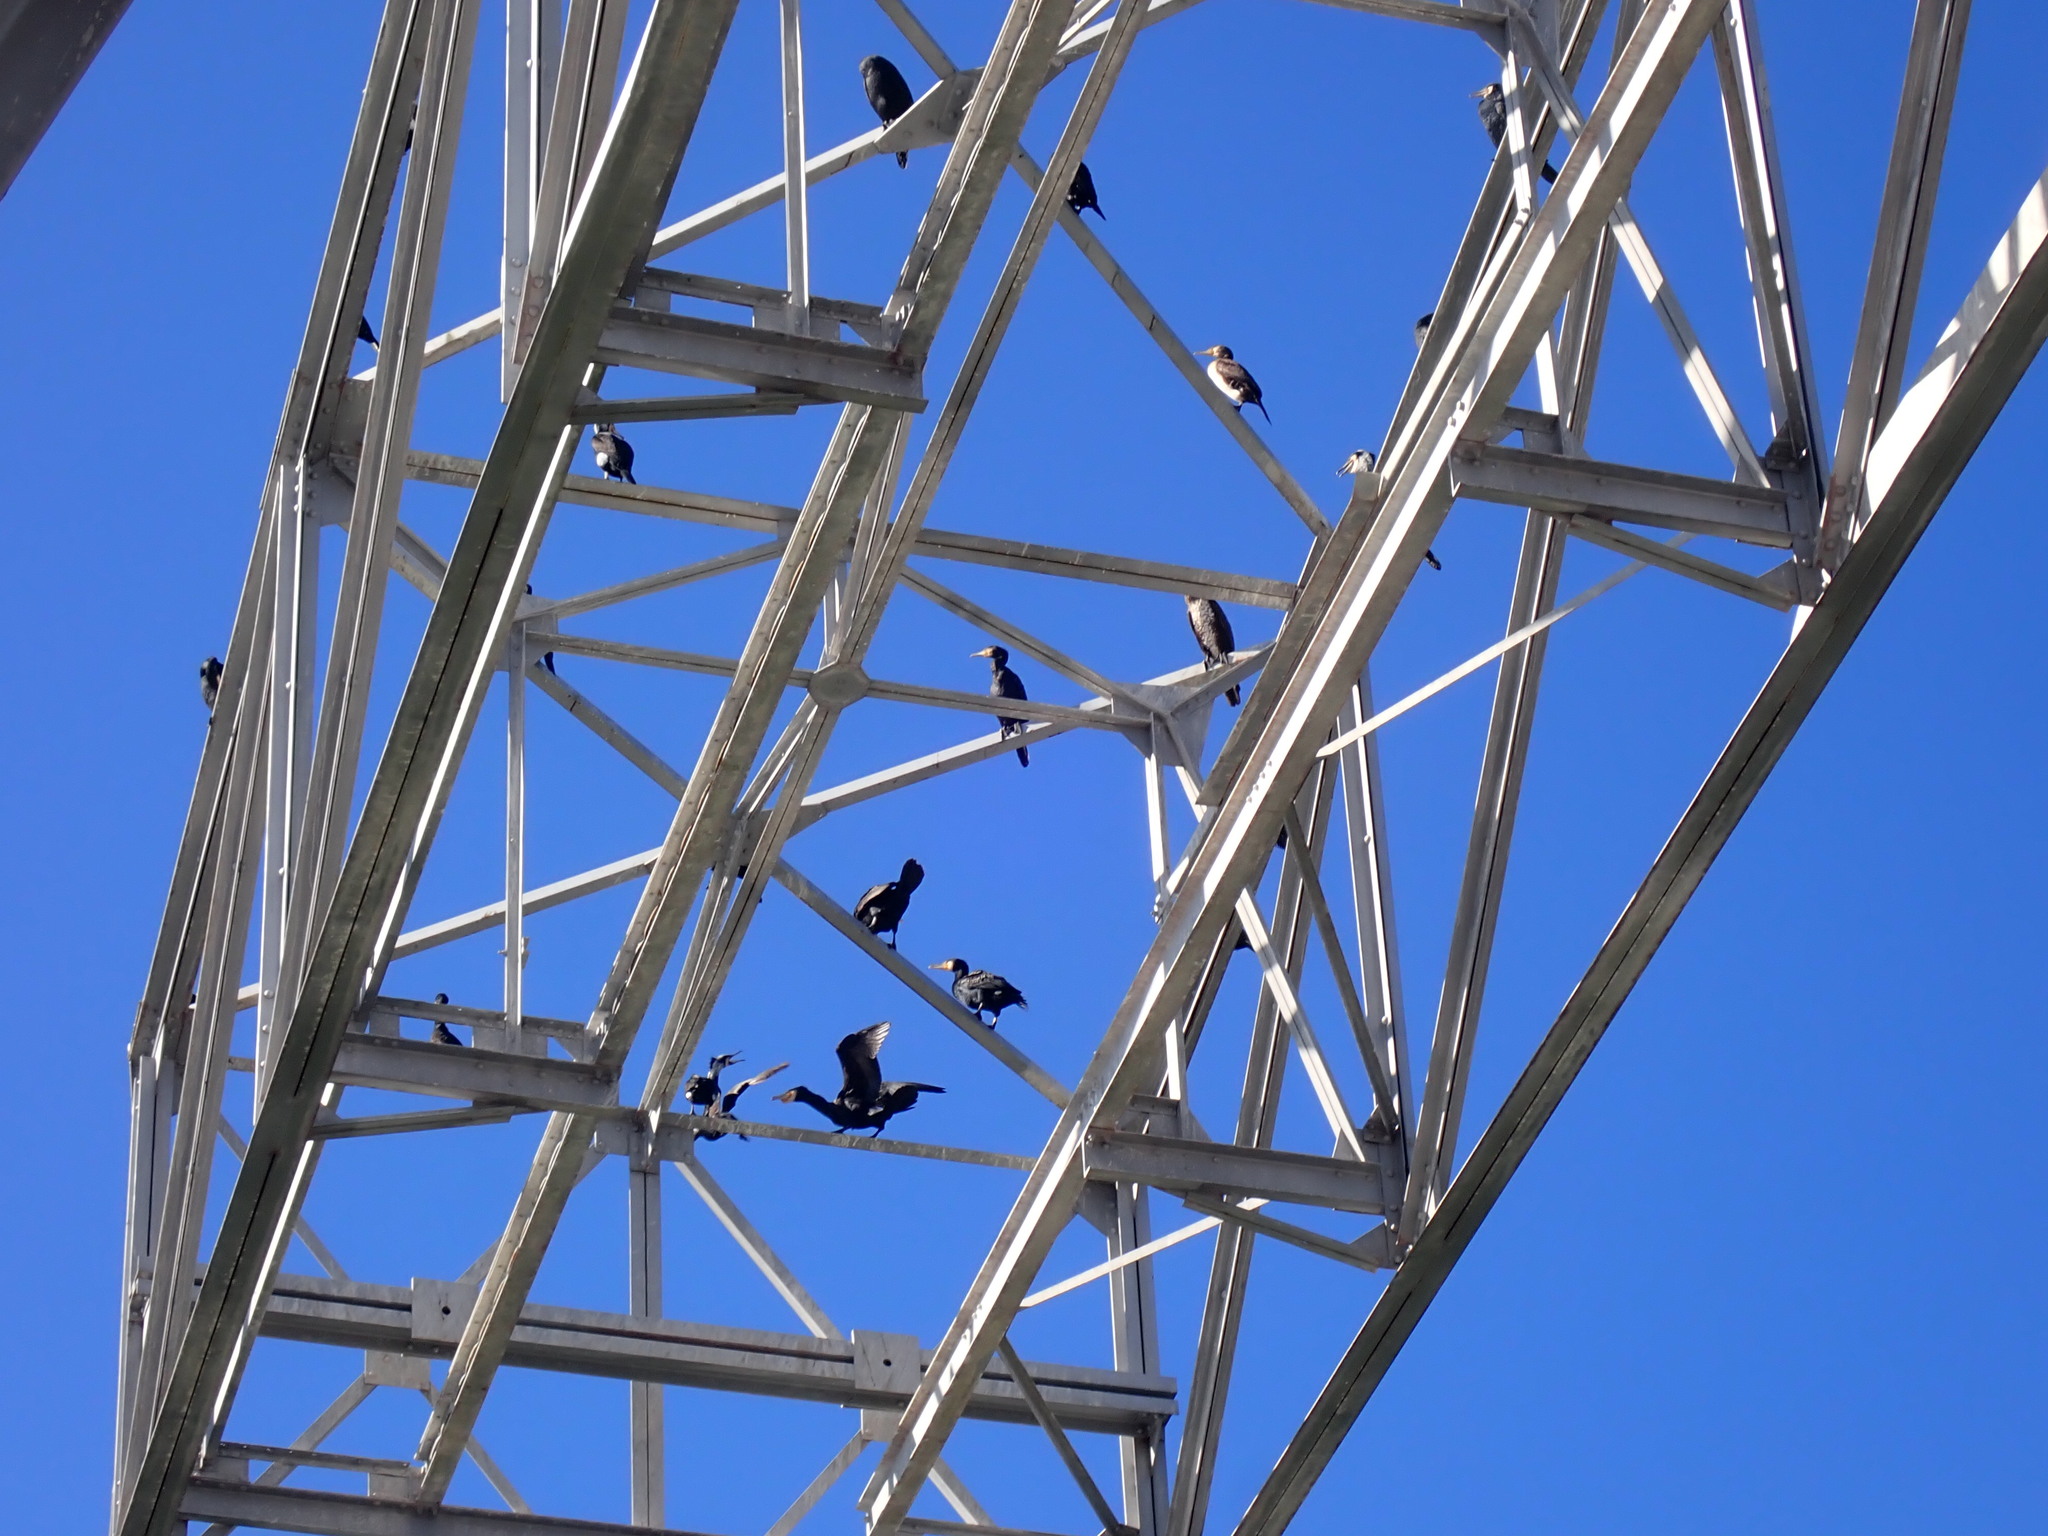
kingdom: Animalia
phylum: Chordata
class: Aves
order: Suliformes
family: Phalacrocoracidae
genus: Phalacrocorax
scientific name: Phalacrocorax carbo
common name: Great cormorant
